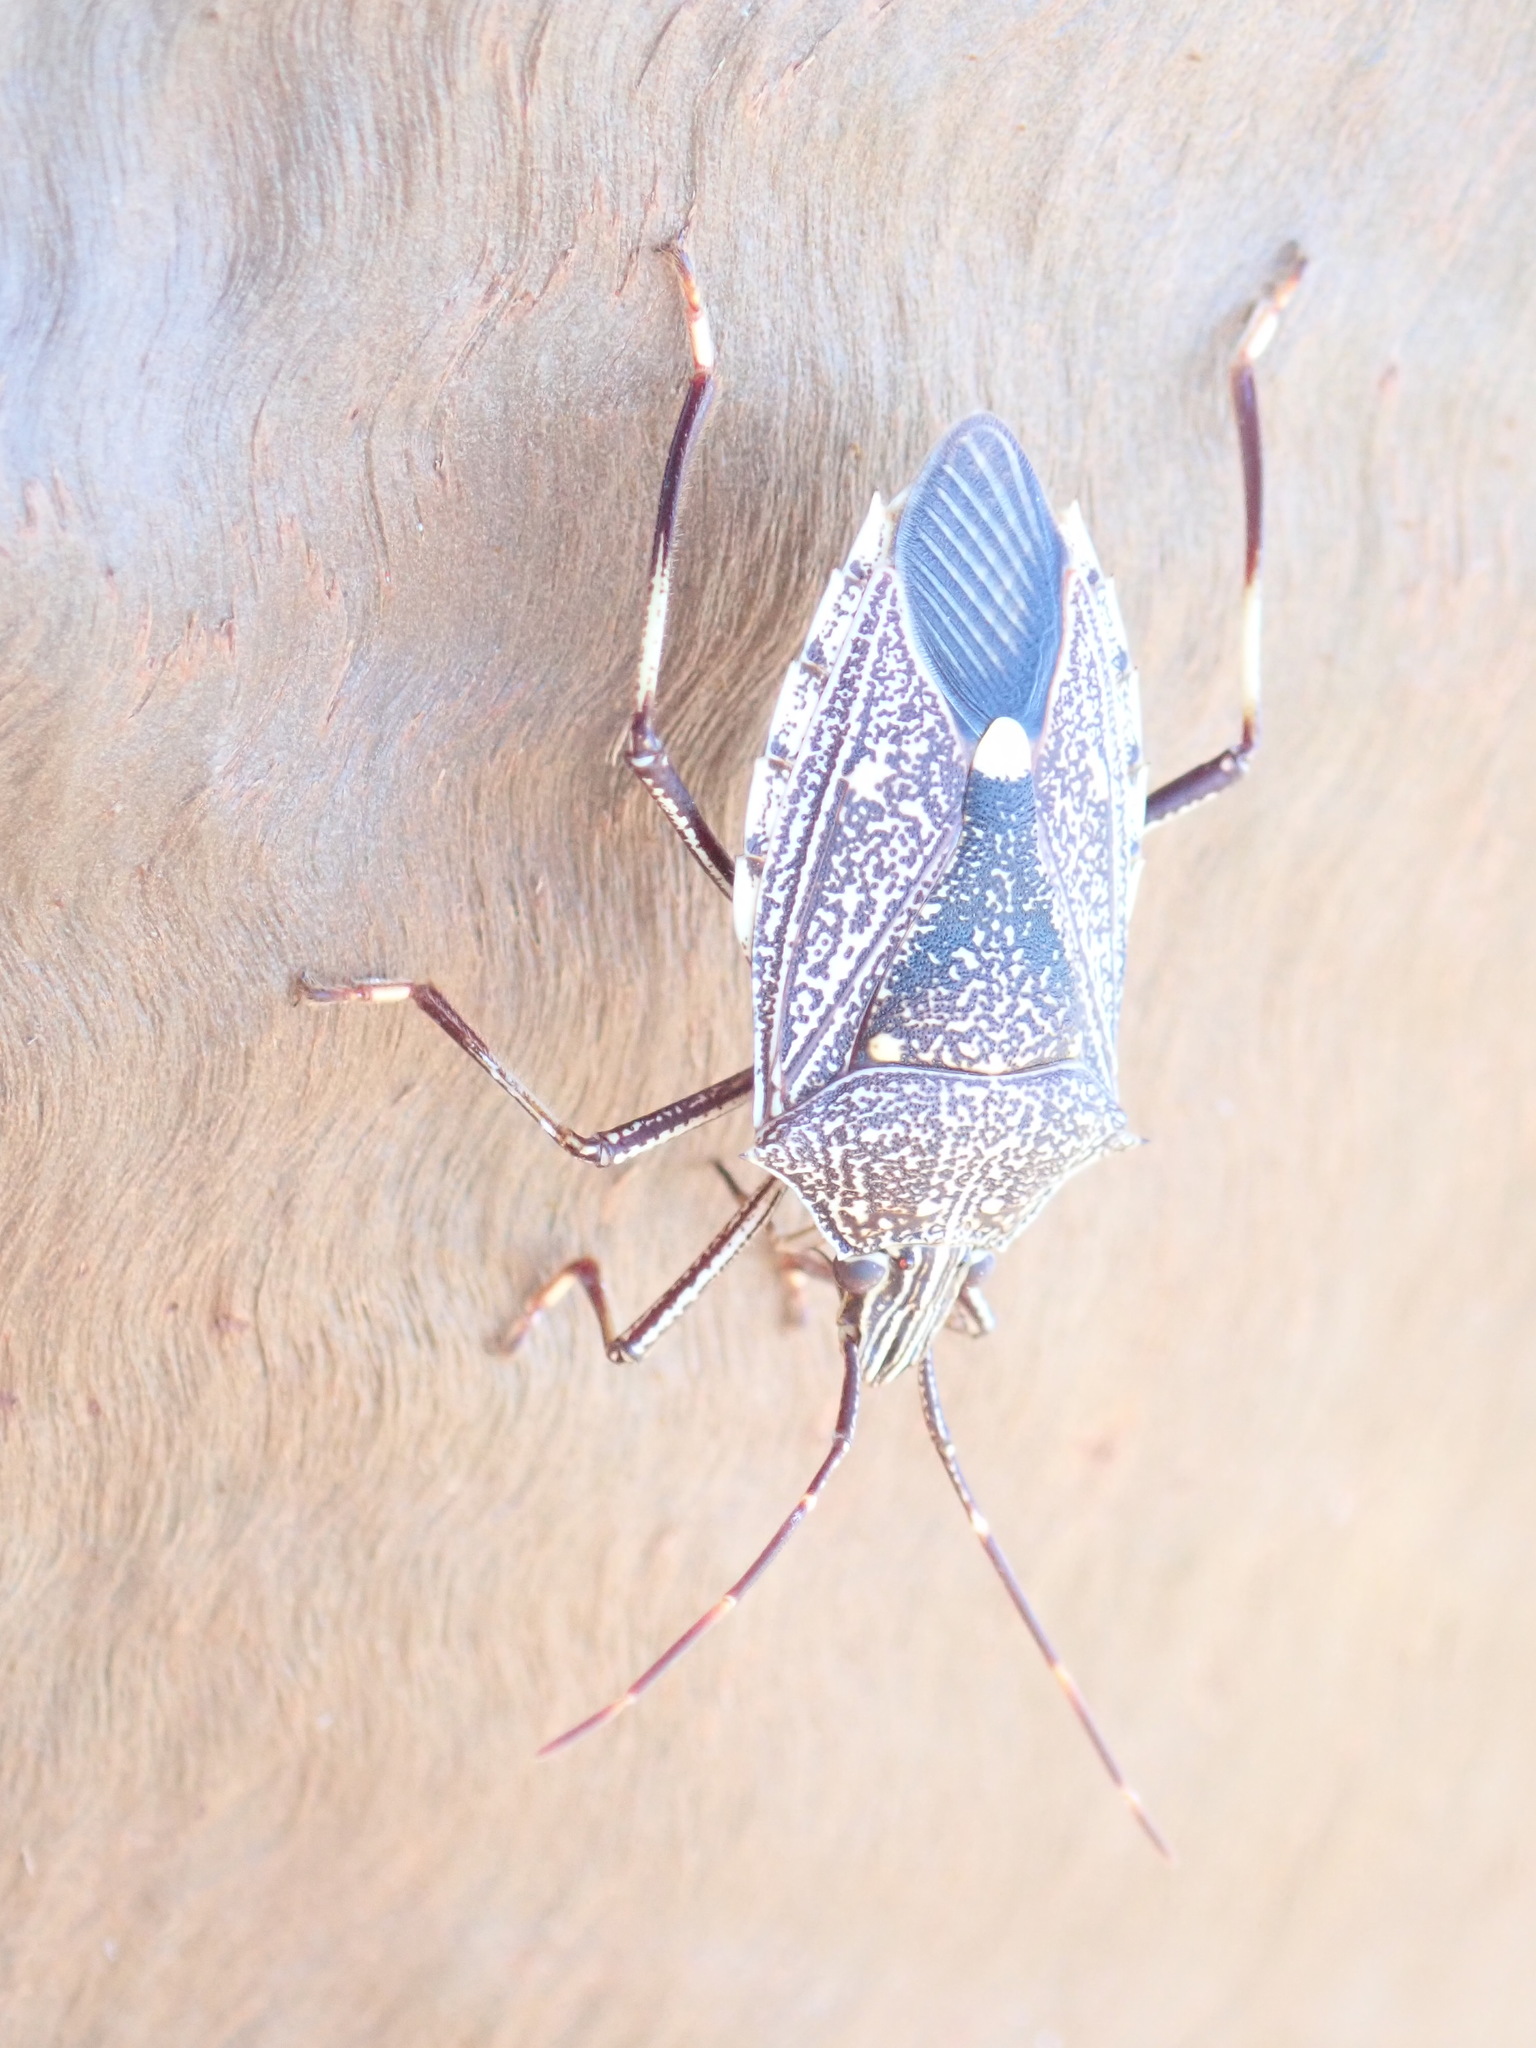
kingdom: Animalia
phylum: Arthropoda
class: Insecta
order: Hemiptera
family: Pentatomidae
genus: Poecilometis
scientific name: Poecilometis
